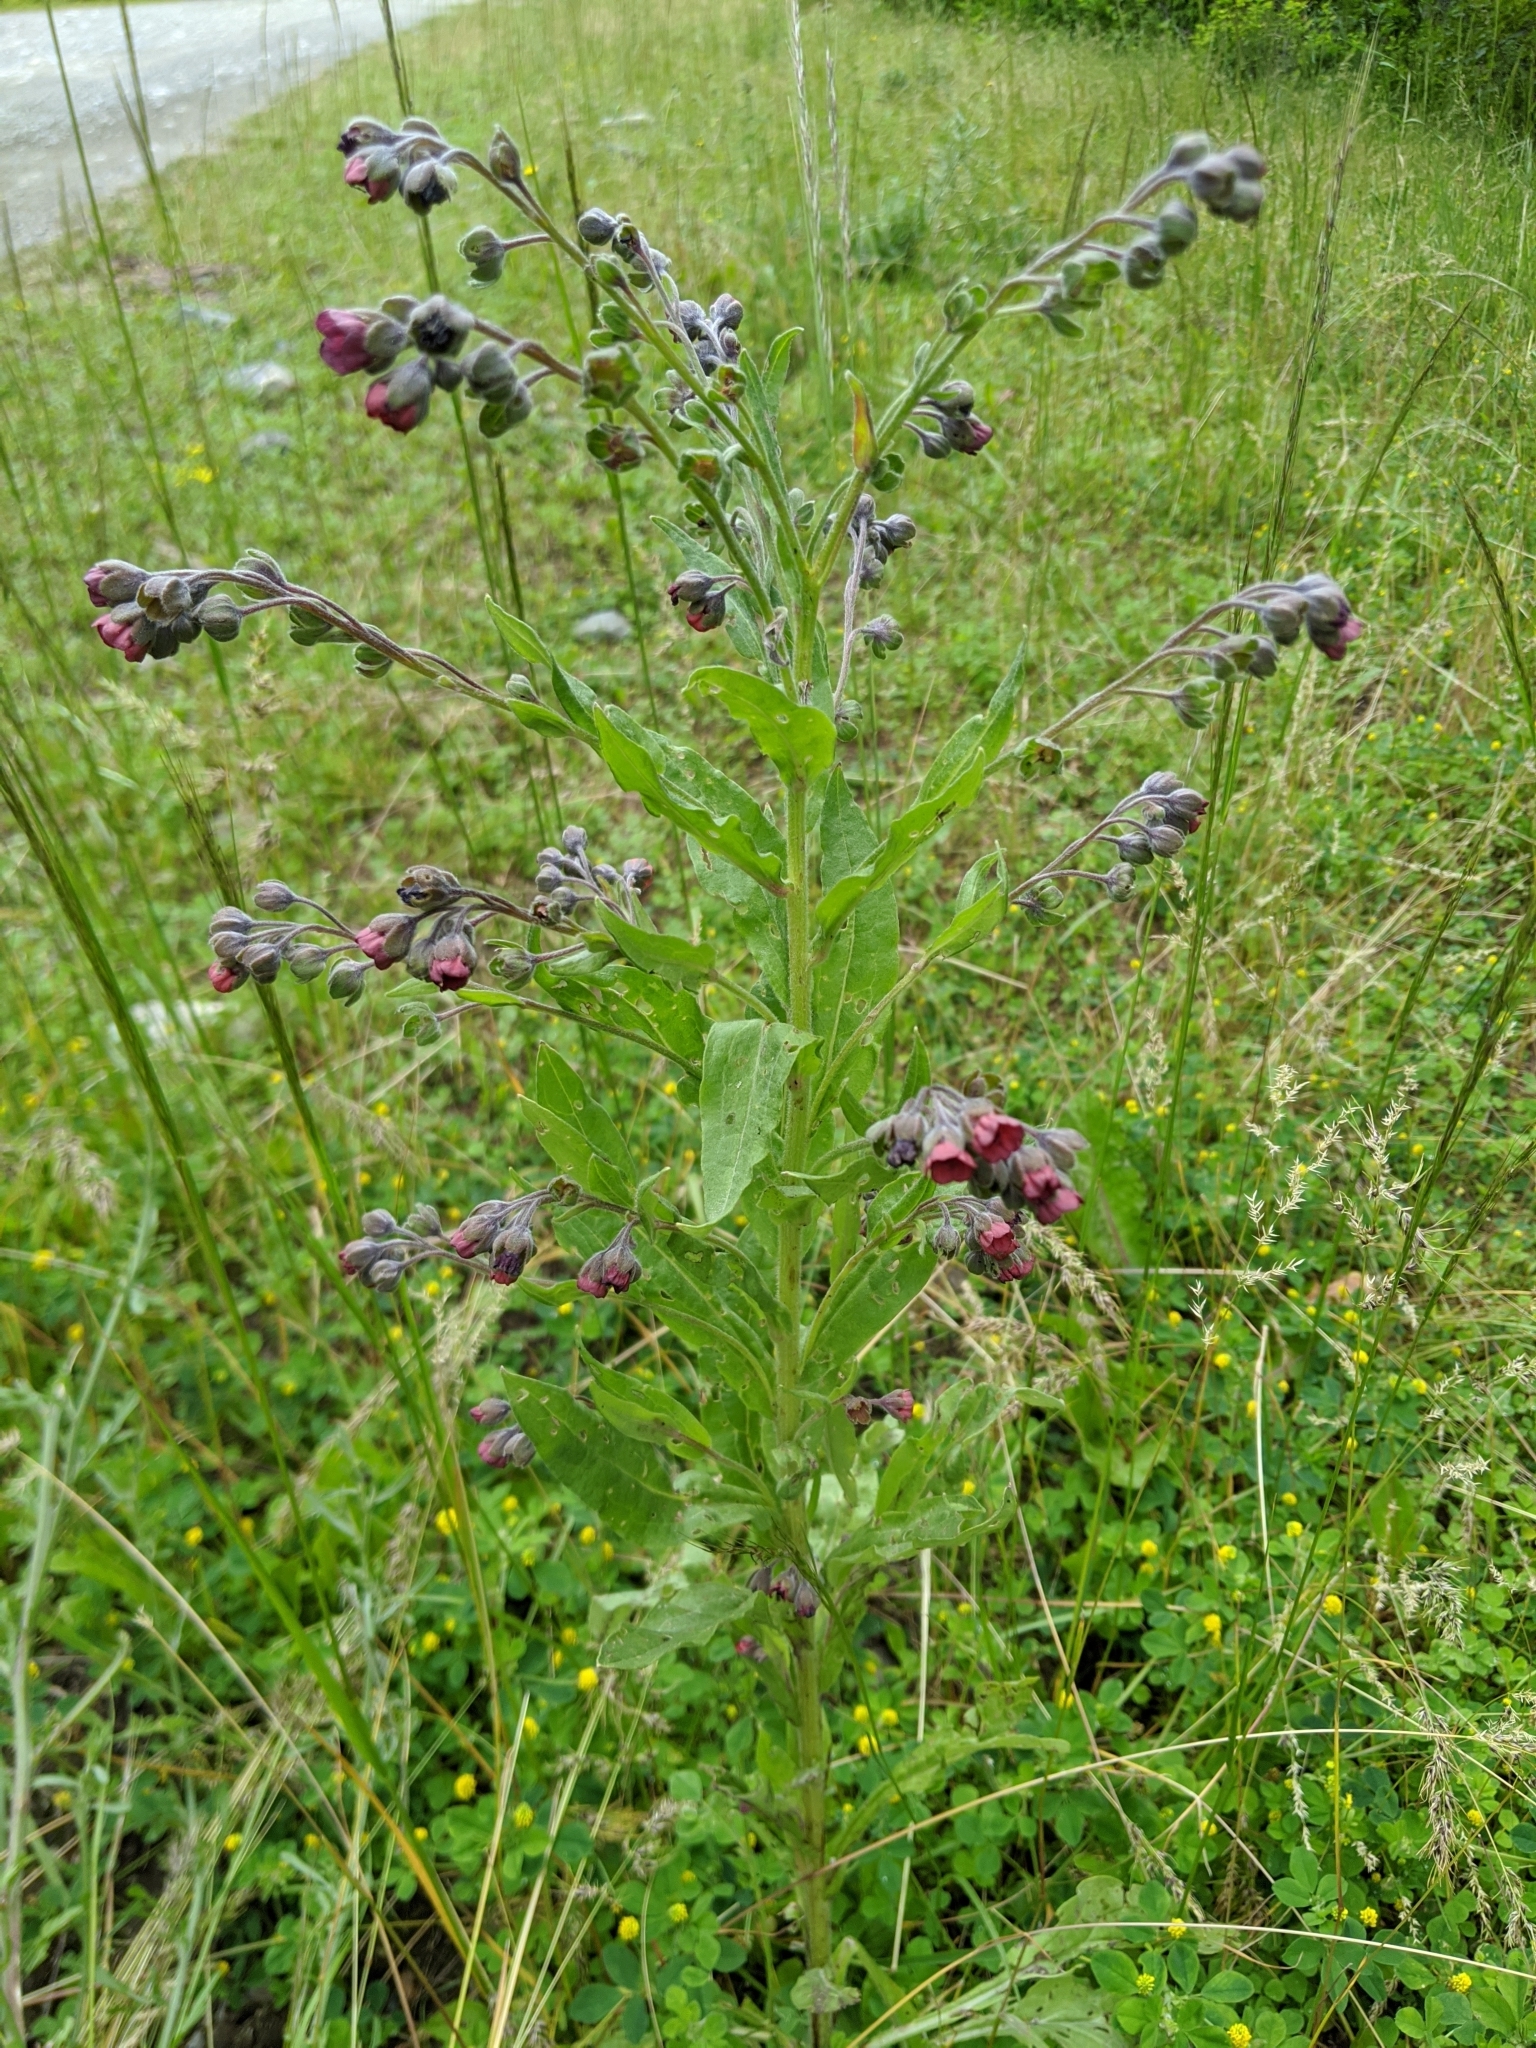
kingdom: Plantae
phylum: Tracheophyta
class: Magnoliopsida
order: Boraginales
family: Boraginaceae
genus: Cynoglossum
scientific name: Cynoglossum officinale
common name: Hound's-tongue
